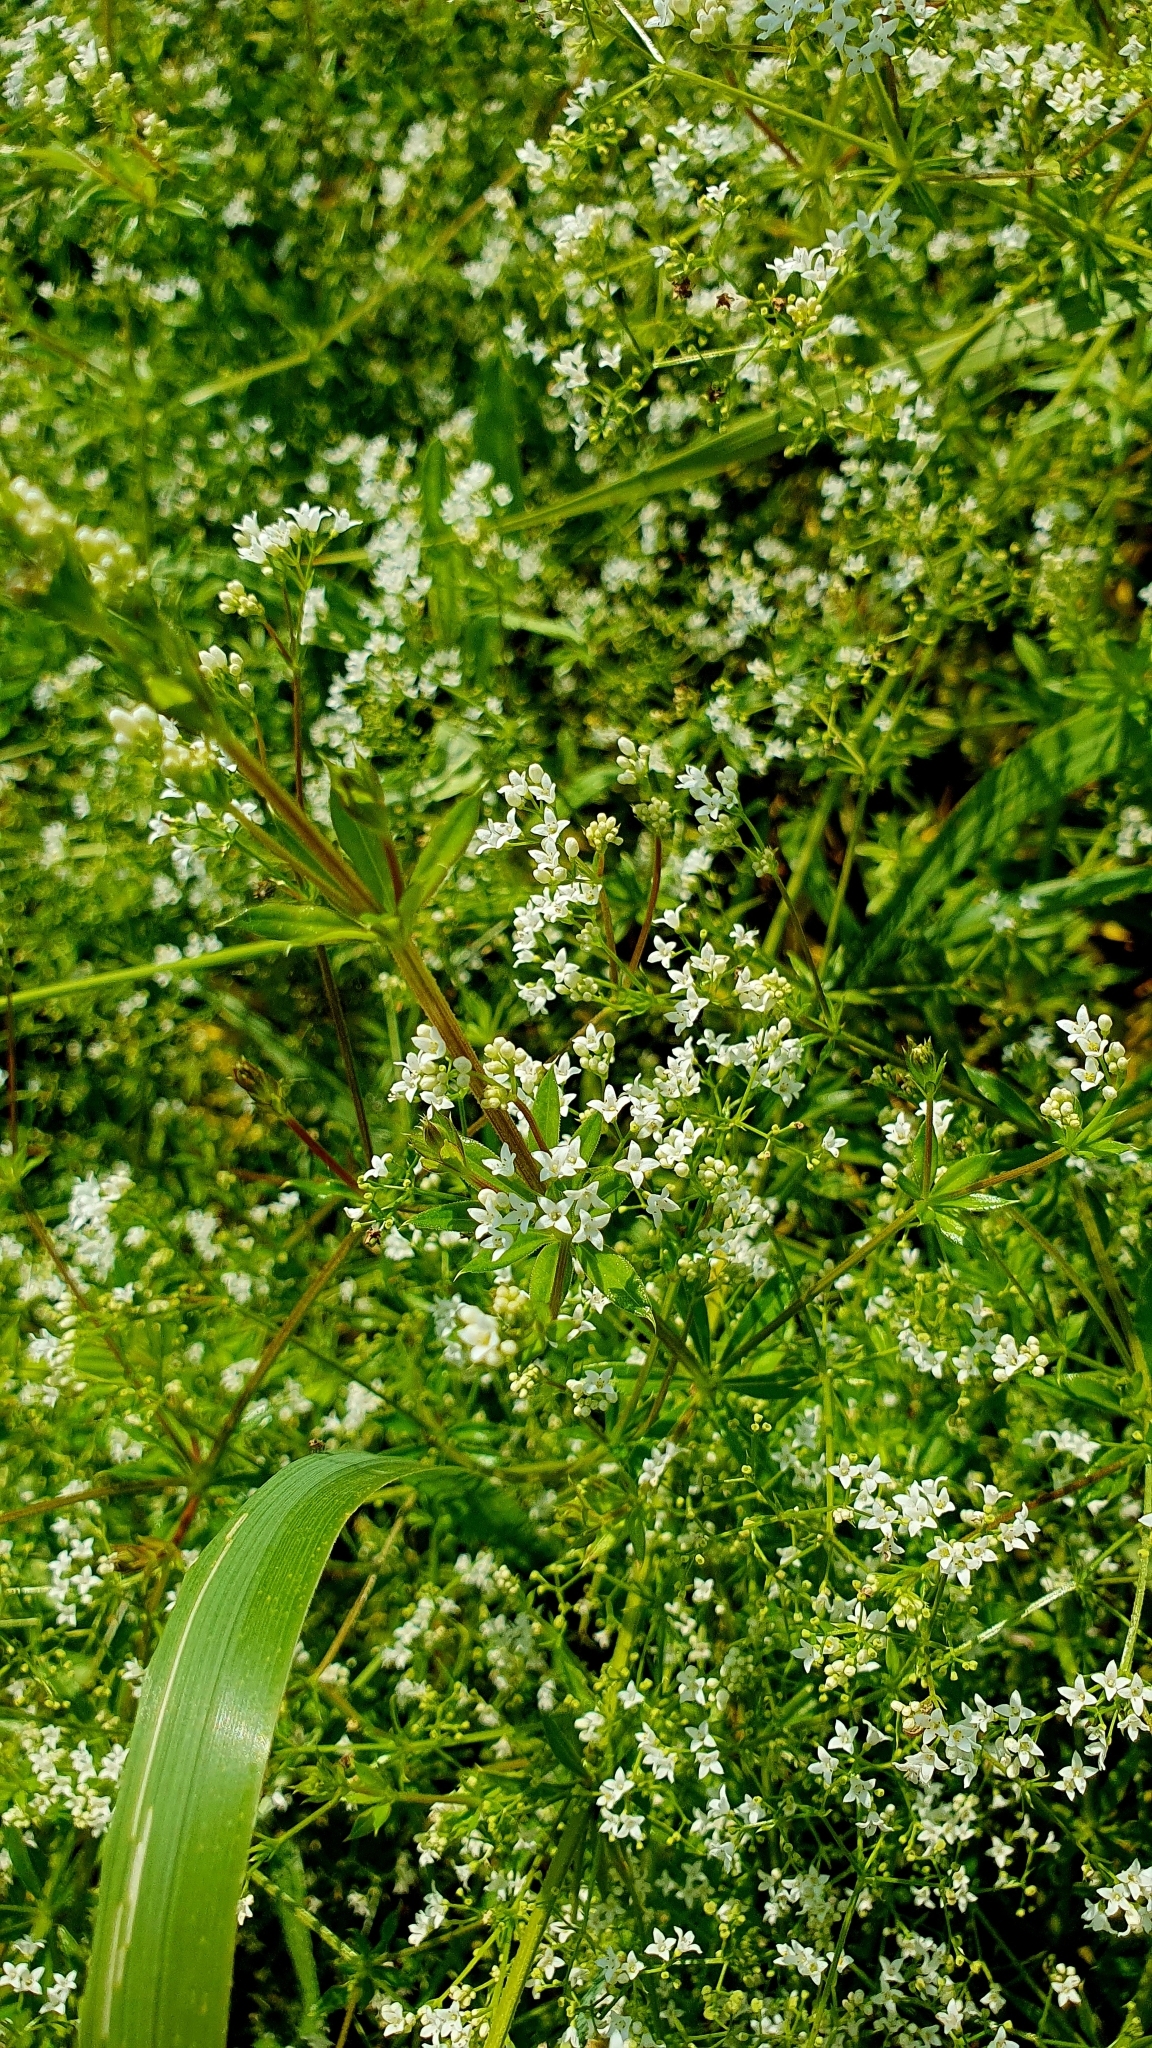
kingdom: Plantae
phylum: Tracheophyta
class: Magnoliopsida
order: Gentianales
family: Rubiaceae
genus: Galium
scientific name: Galium rivale
